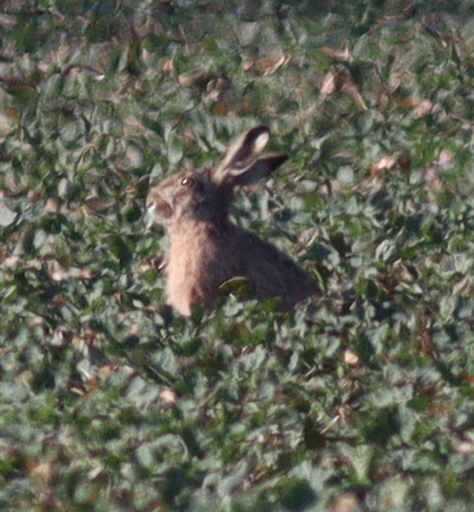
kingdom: Animalia
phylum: Chordata
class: Mammalia
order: Lagomorpha
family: Leporidae
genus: Lepus
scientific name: Lepus europaeus
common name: European hare
